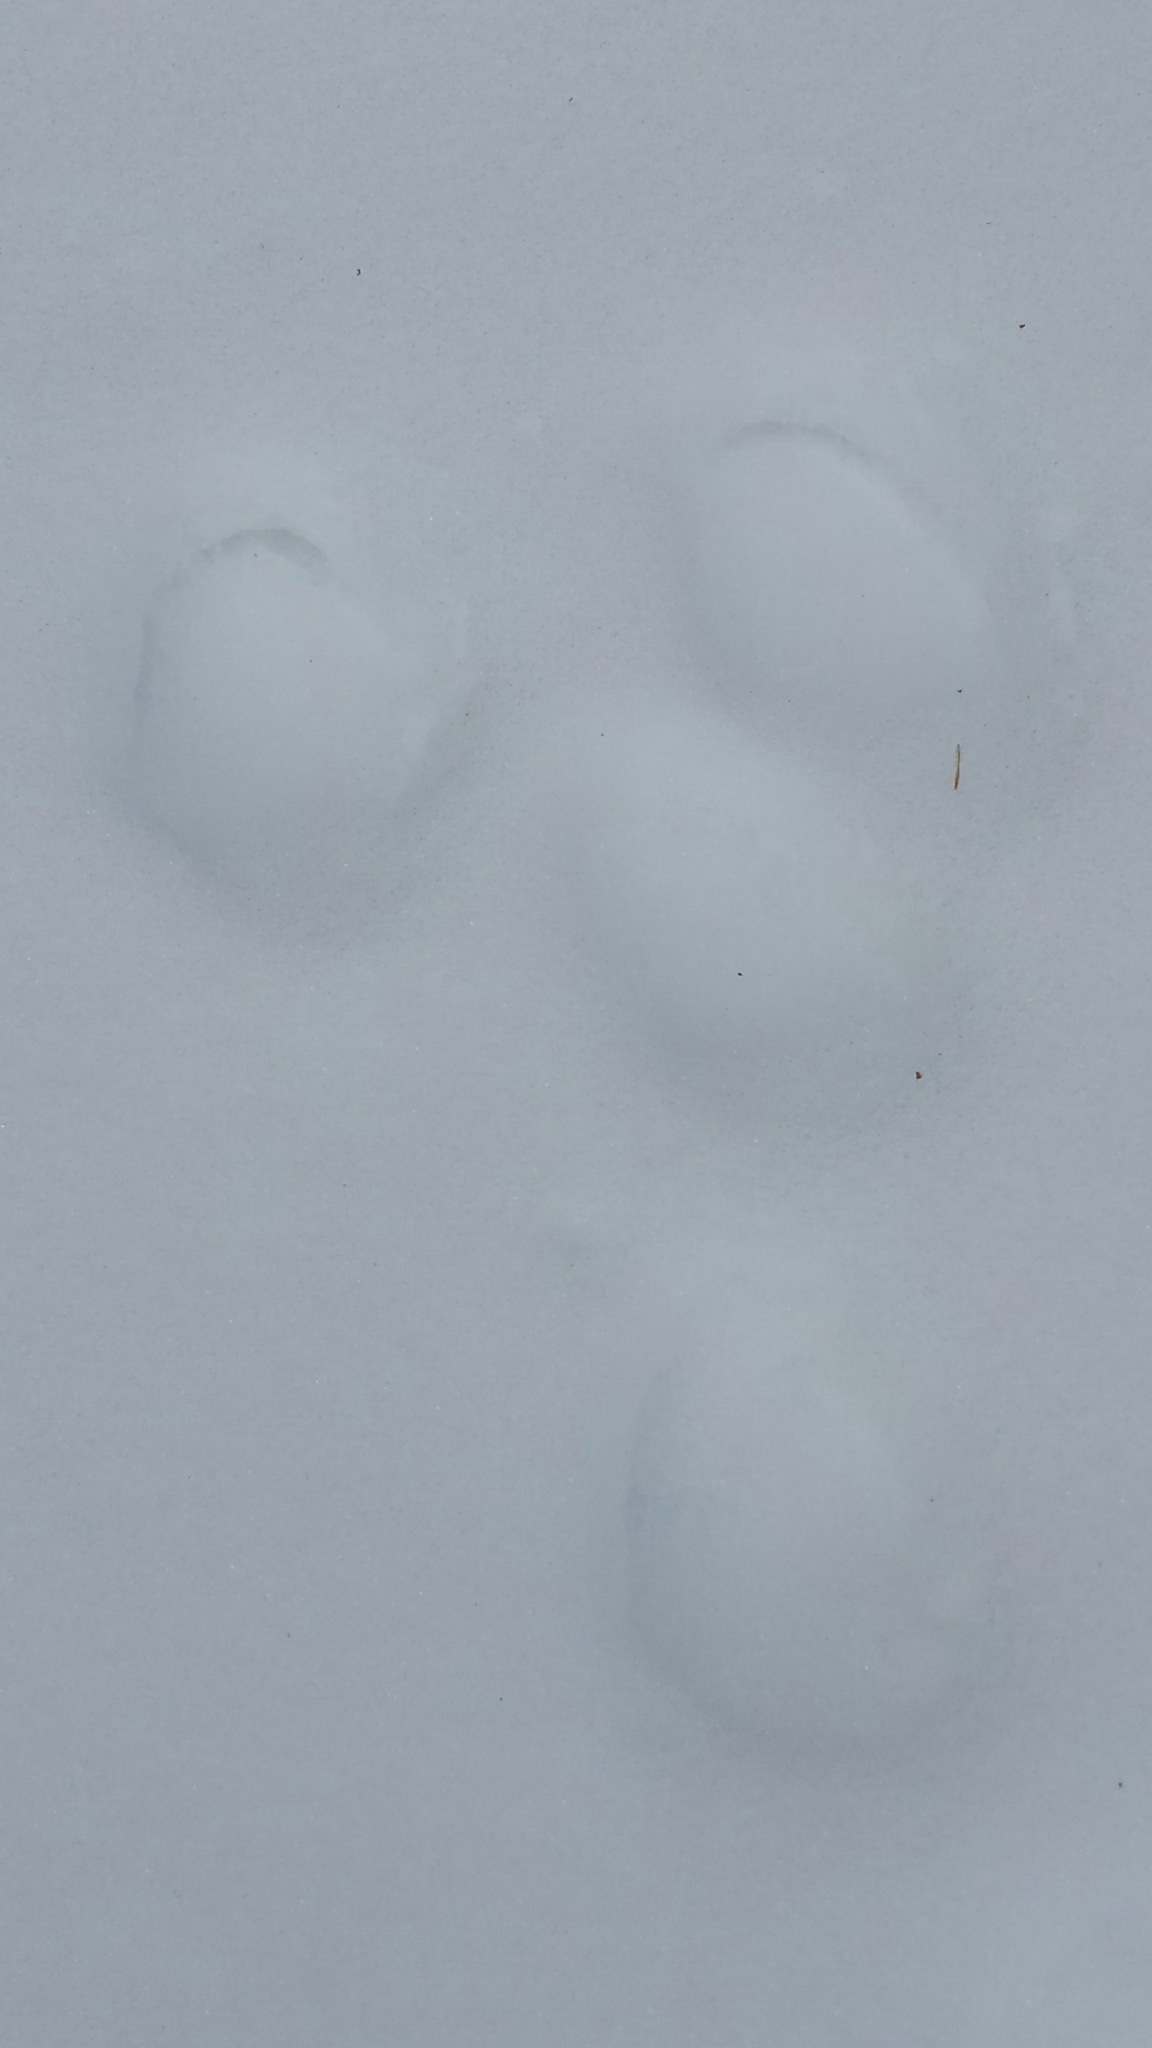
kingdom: Animalia
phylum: Chordata
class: Mammalia
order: Lagomorpha
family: Leporidae
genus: Lepus
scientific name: Lepus americanus
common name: Snowshoe hare
